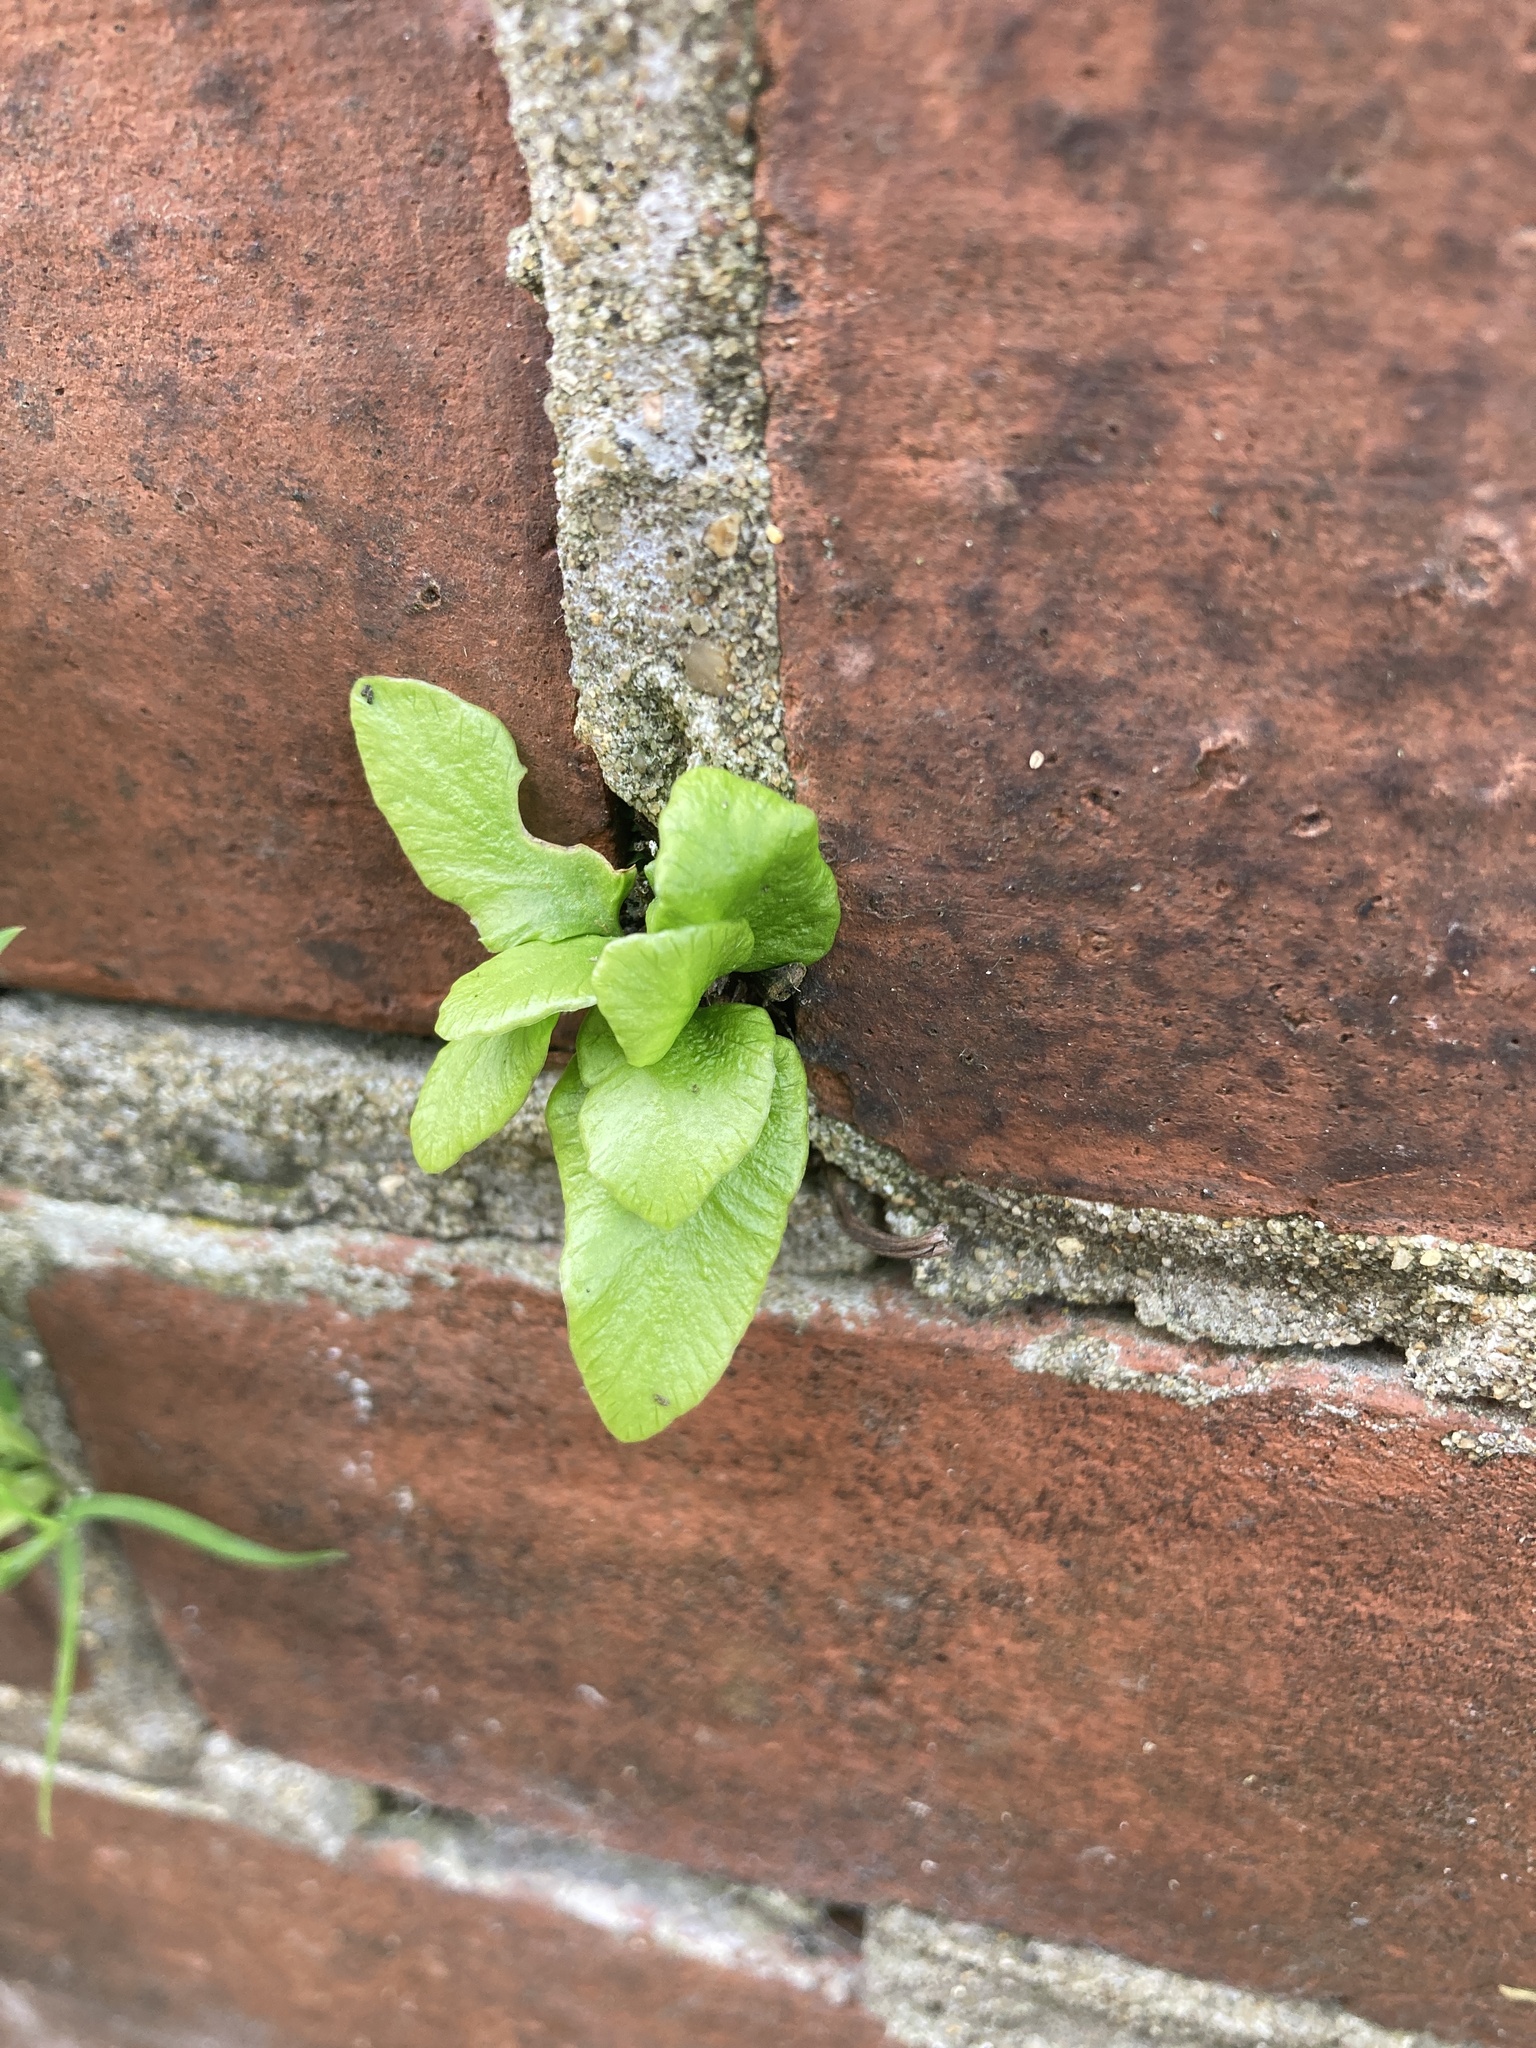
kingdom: Plantae
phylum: Tracheophyta
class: Polypodiopsida
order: Polypodiales
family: Aspleniaceae
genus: Asplenium
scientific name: Asplenium scolopendrium
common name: Hart's-tongue fern
